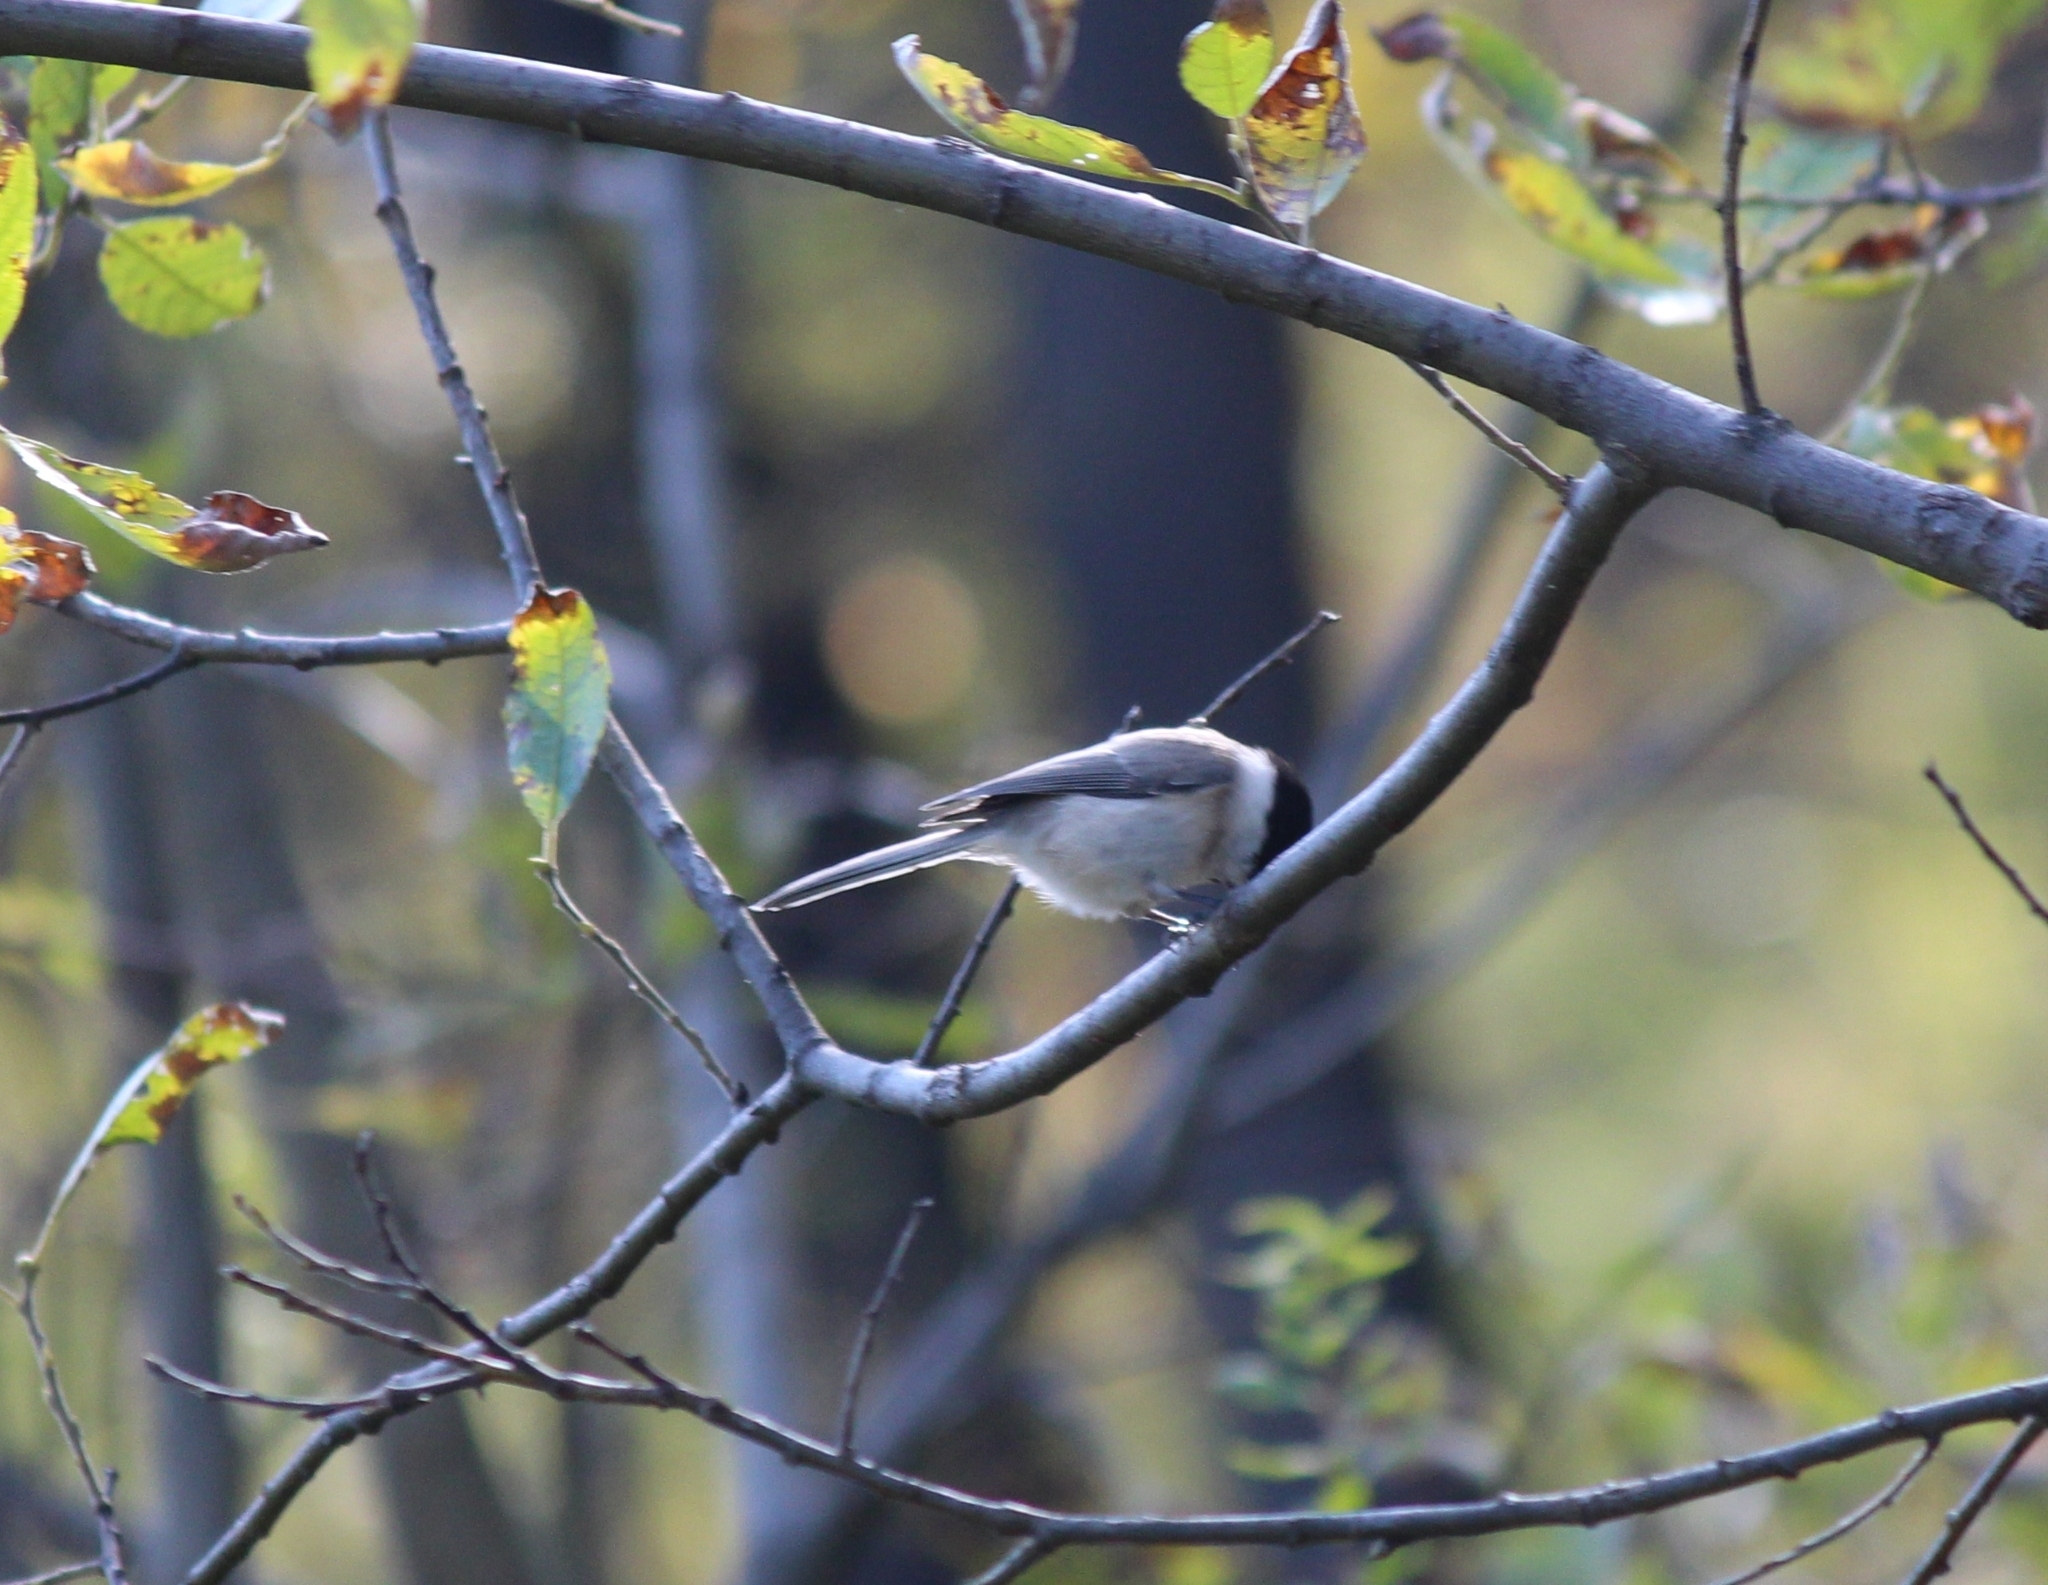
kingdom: Animalia
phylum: Chordata
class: Aves
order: Passeriformes
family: Paridae
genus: Poecile
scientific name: Poecile palustris
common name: Marsh tit
